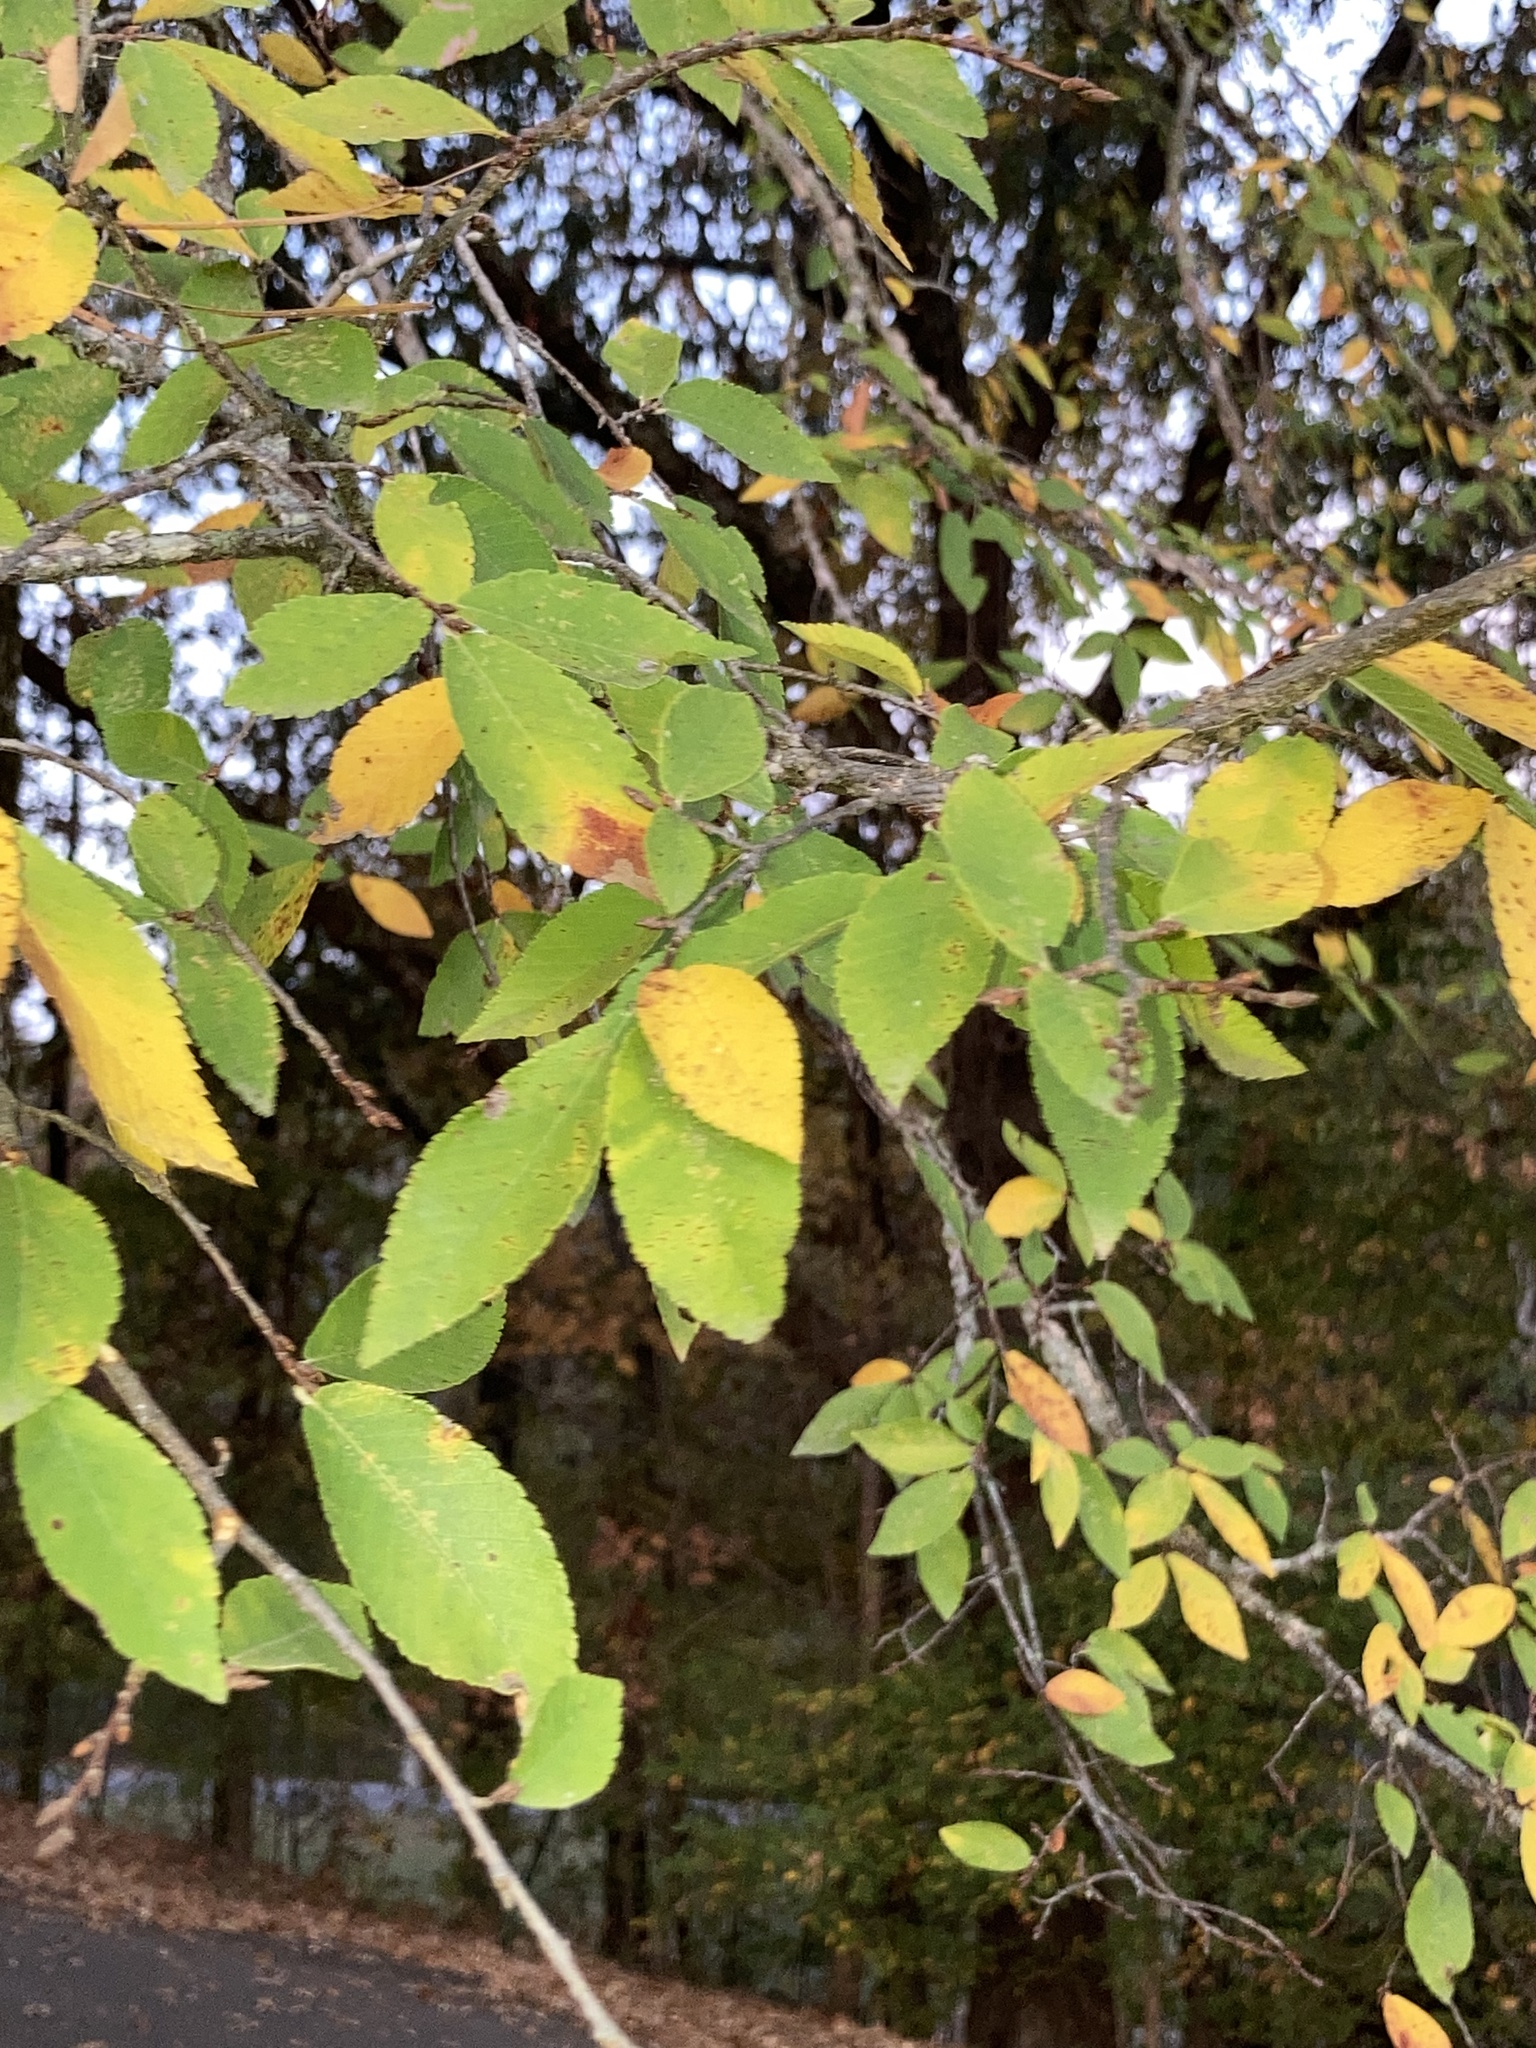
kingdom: Plantae
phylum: Tracheophyta
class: Magnoliopsida
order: Rosales
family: Ulmaceae
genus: Ulmus
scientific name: Ulmus alata
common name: Winged elm
